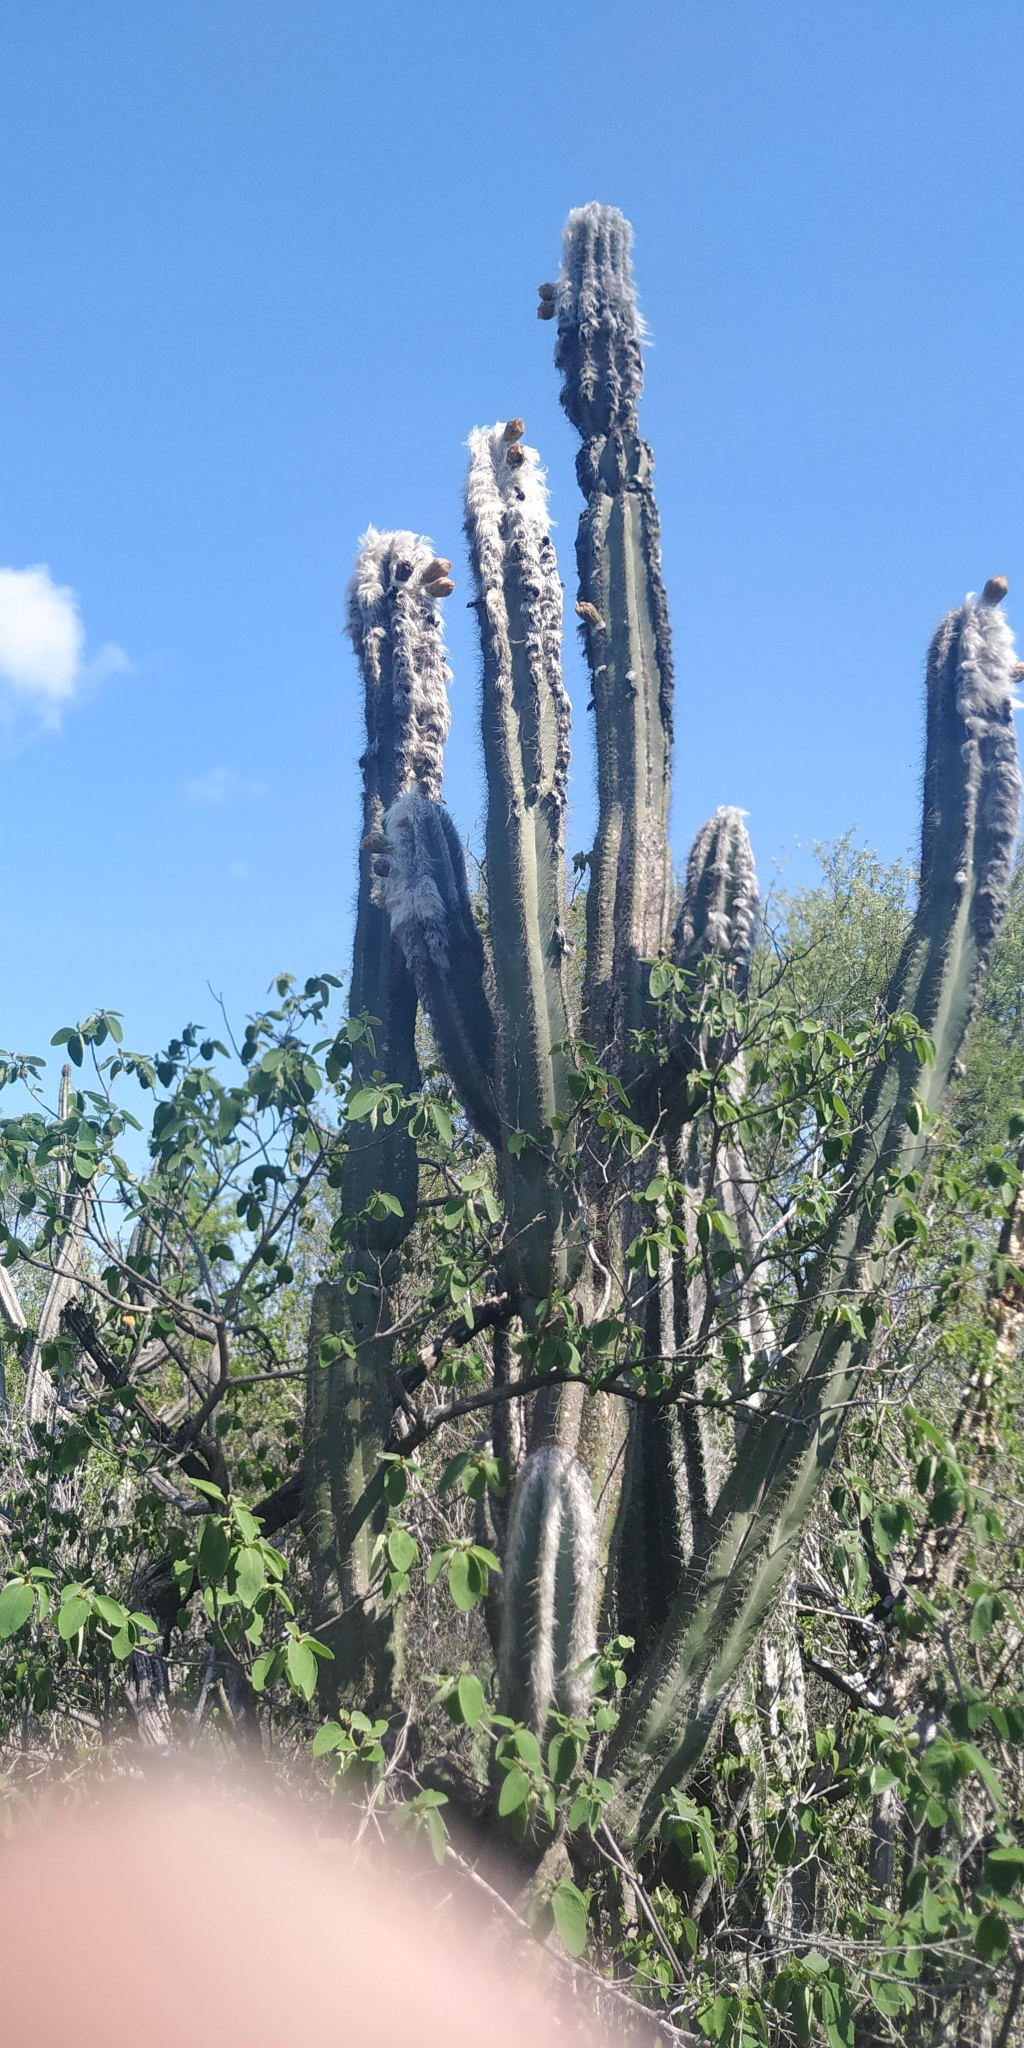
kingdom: Plantae
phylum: Tracheophyta
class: Magnoliopsida
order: Caryophyllales
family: Cactaceae
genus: Pilosocereus
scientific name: Pilosocereus leucocephalus
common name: Old man cactus
